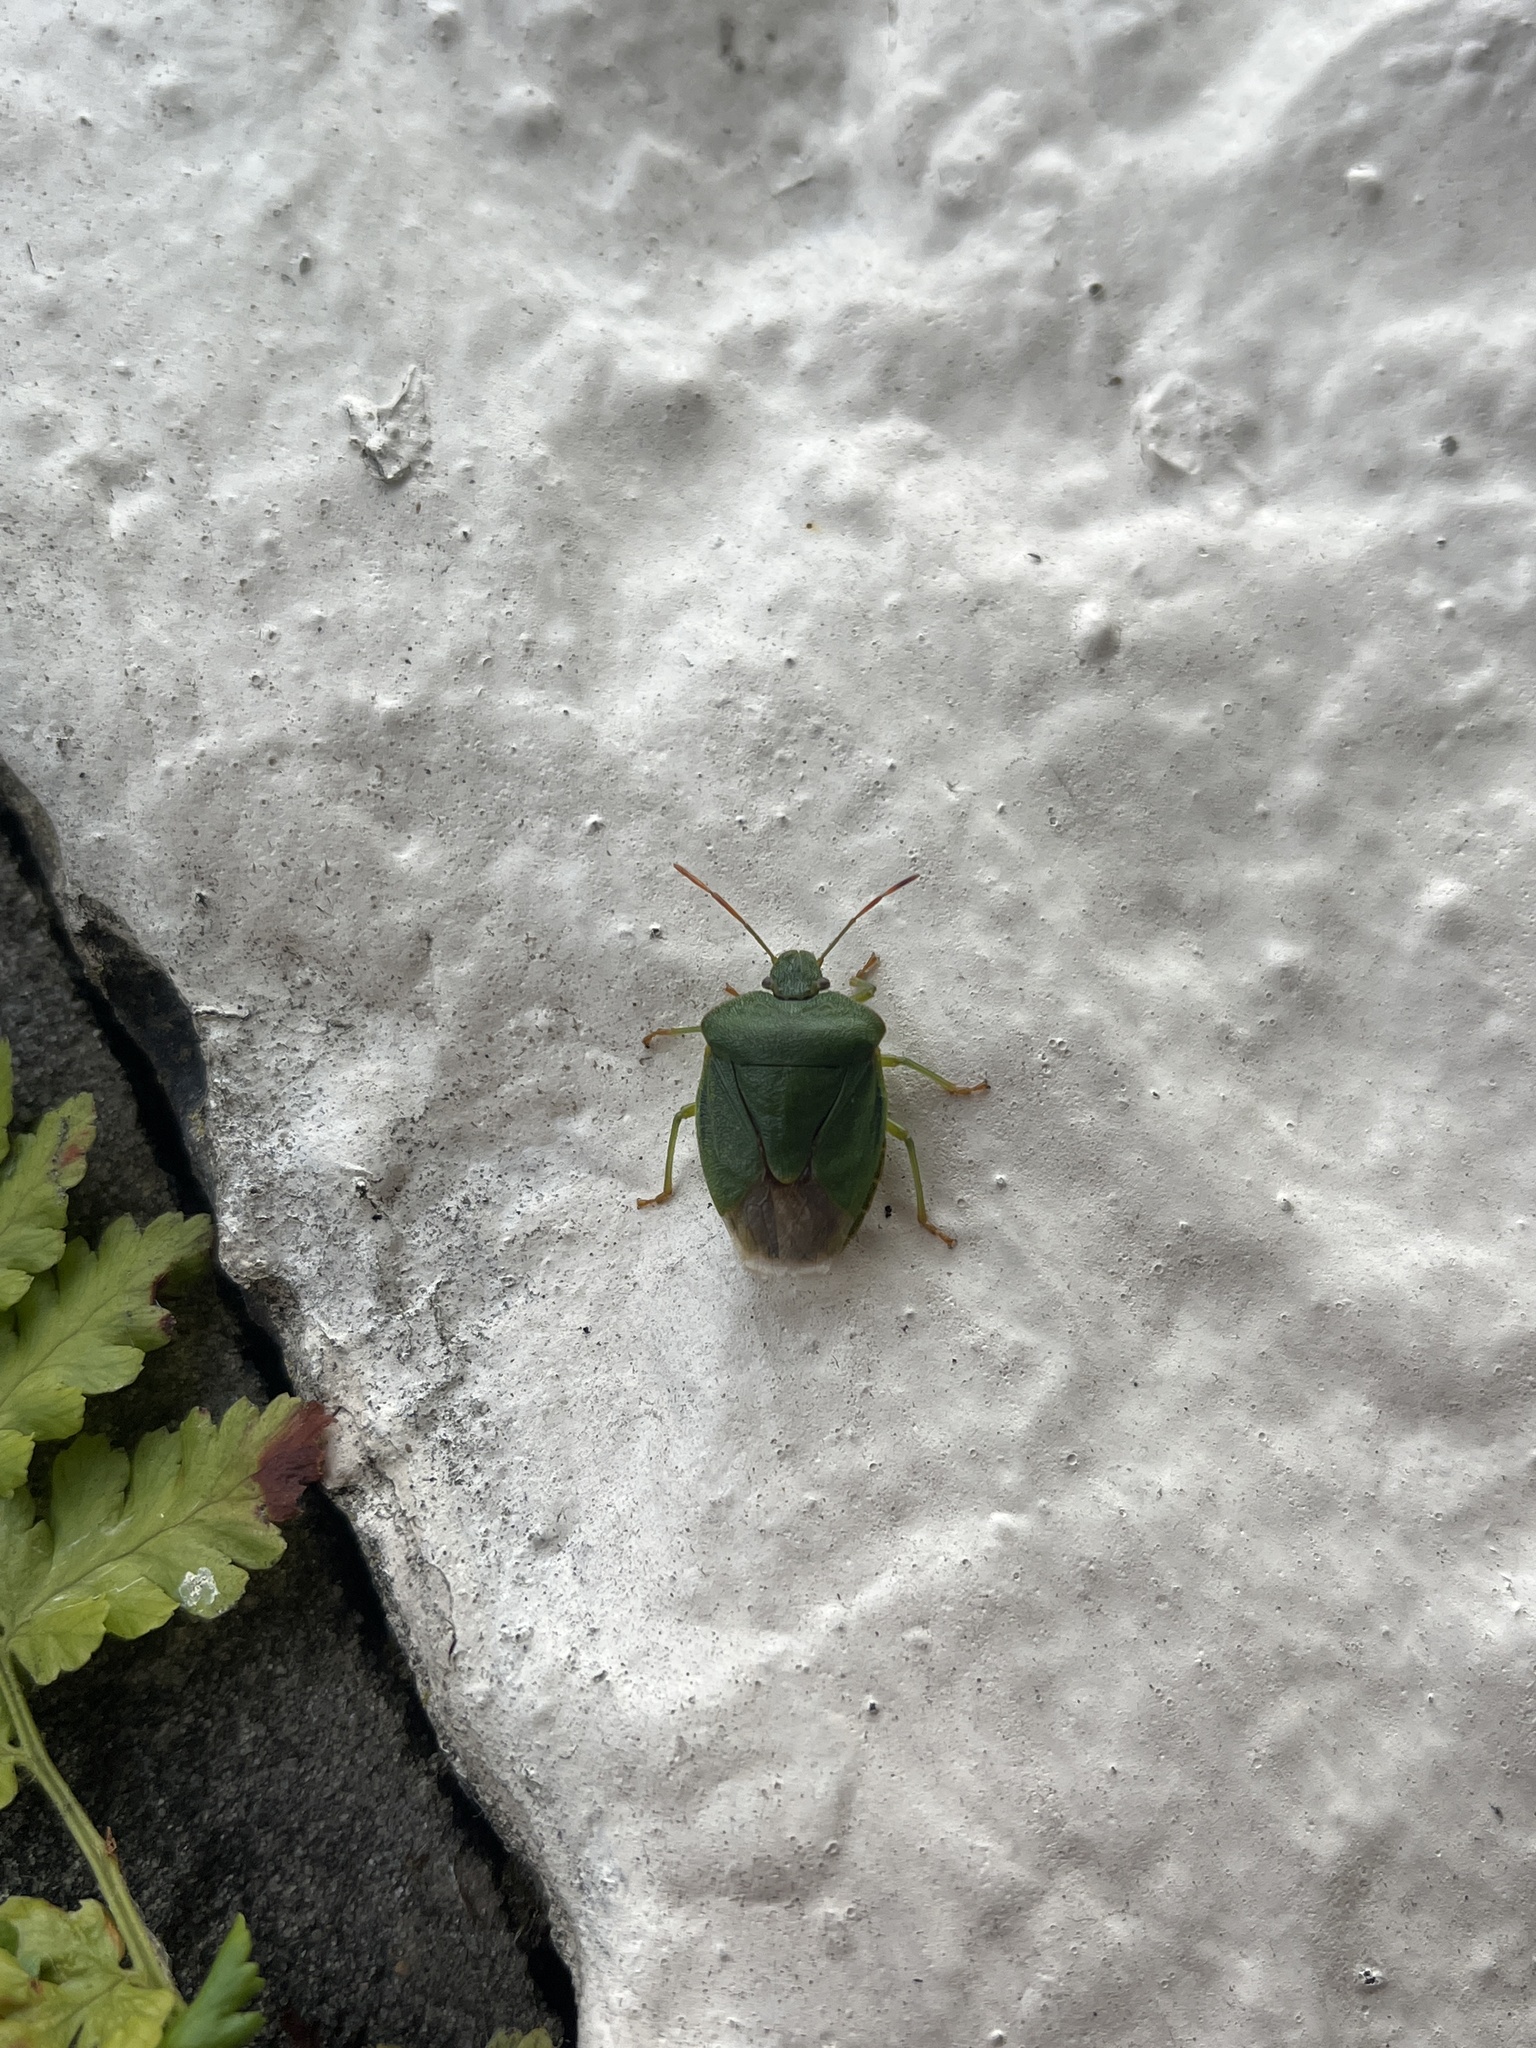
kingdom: Animalia
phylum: Arthropoda
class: Insecta
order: Hemiptera
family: Pentatomidae
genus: Palomena
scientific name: Palomena prasina
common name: Green shieldbug
